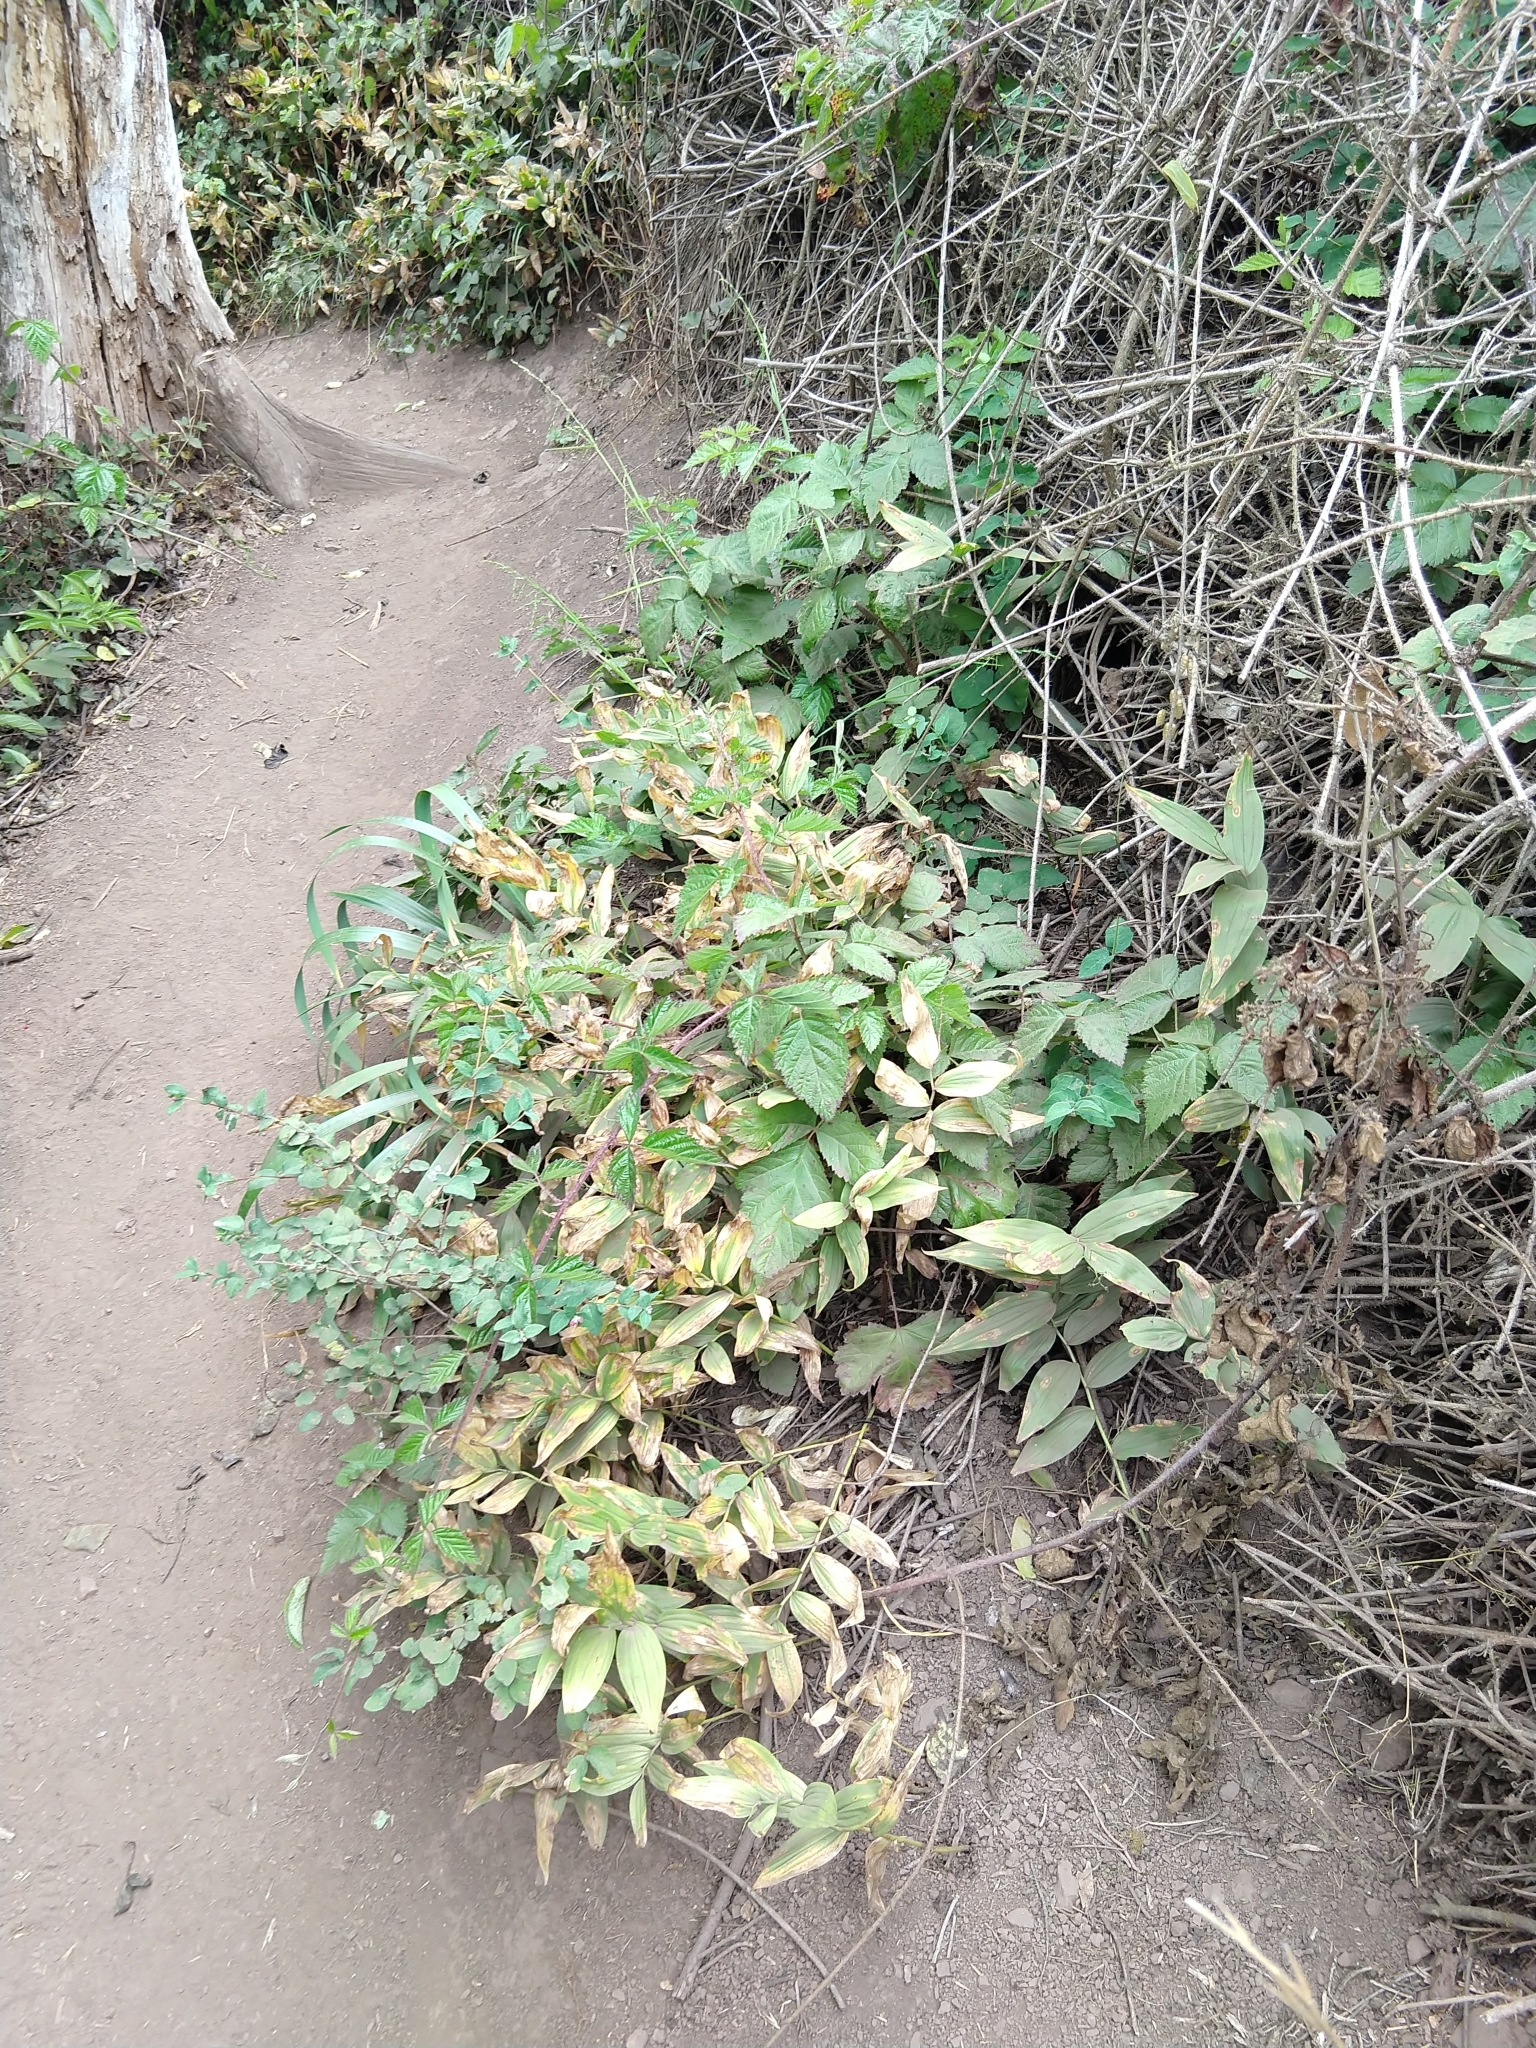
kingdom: Plantae
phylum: Tracheophyta
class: Liliopsida
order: Asparagales
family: Asparagaceae
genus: Maianthemum
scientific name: Maianthemum stellatum
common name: Little false solomon's seal
